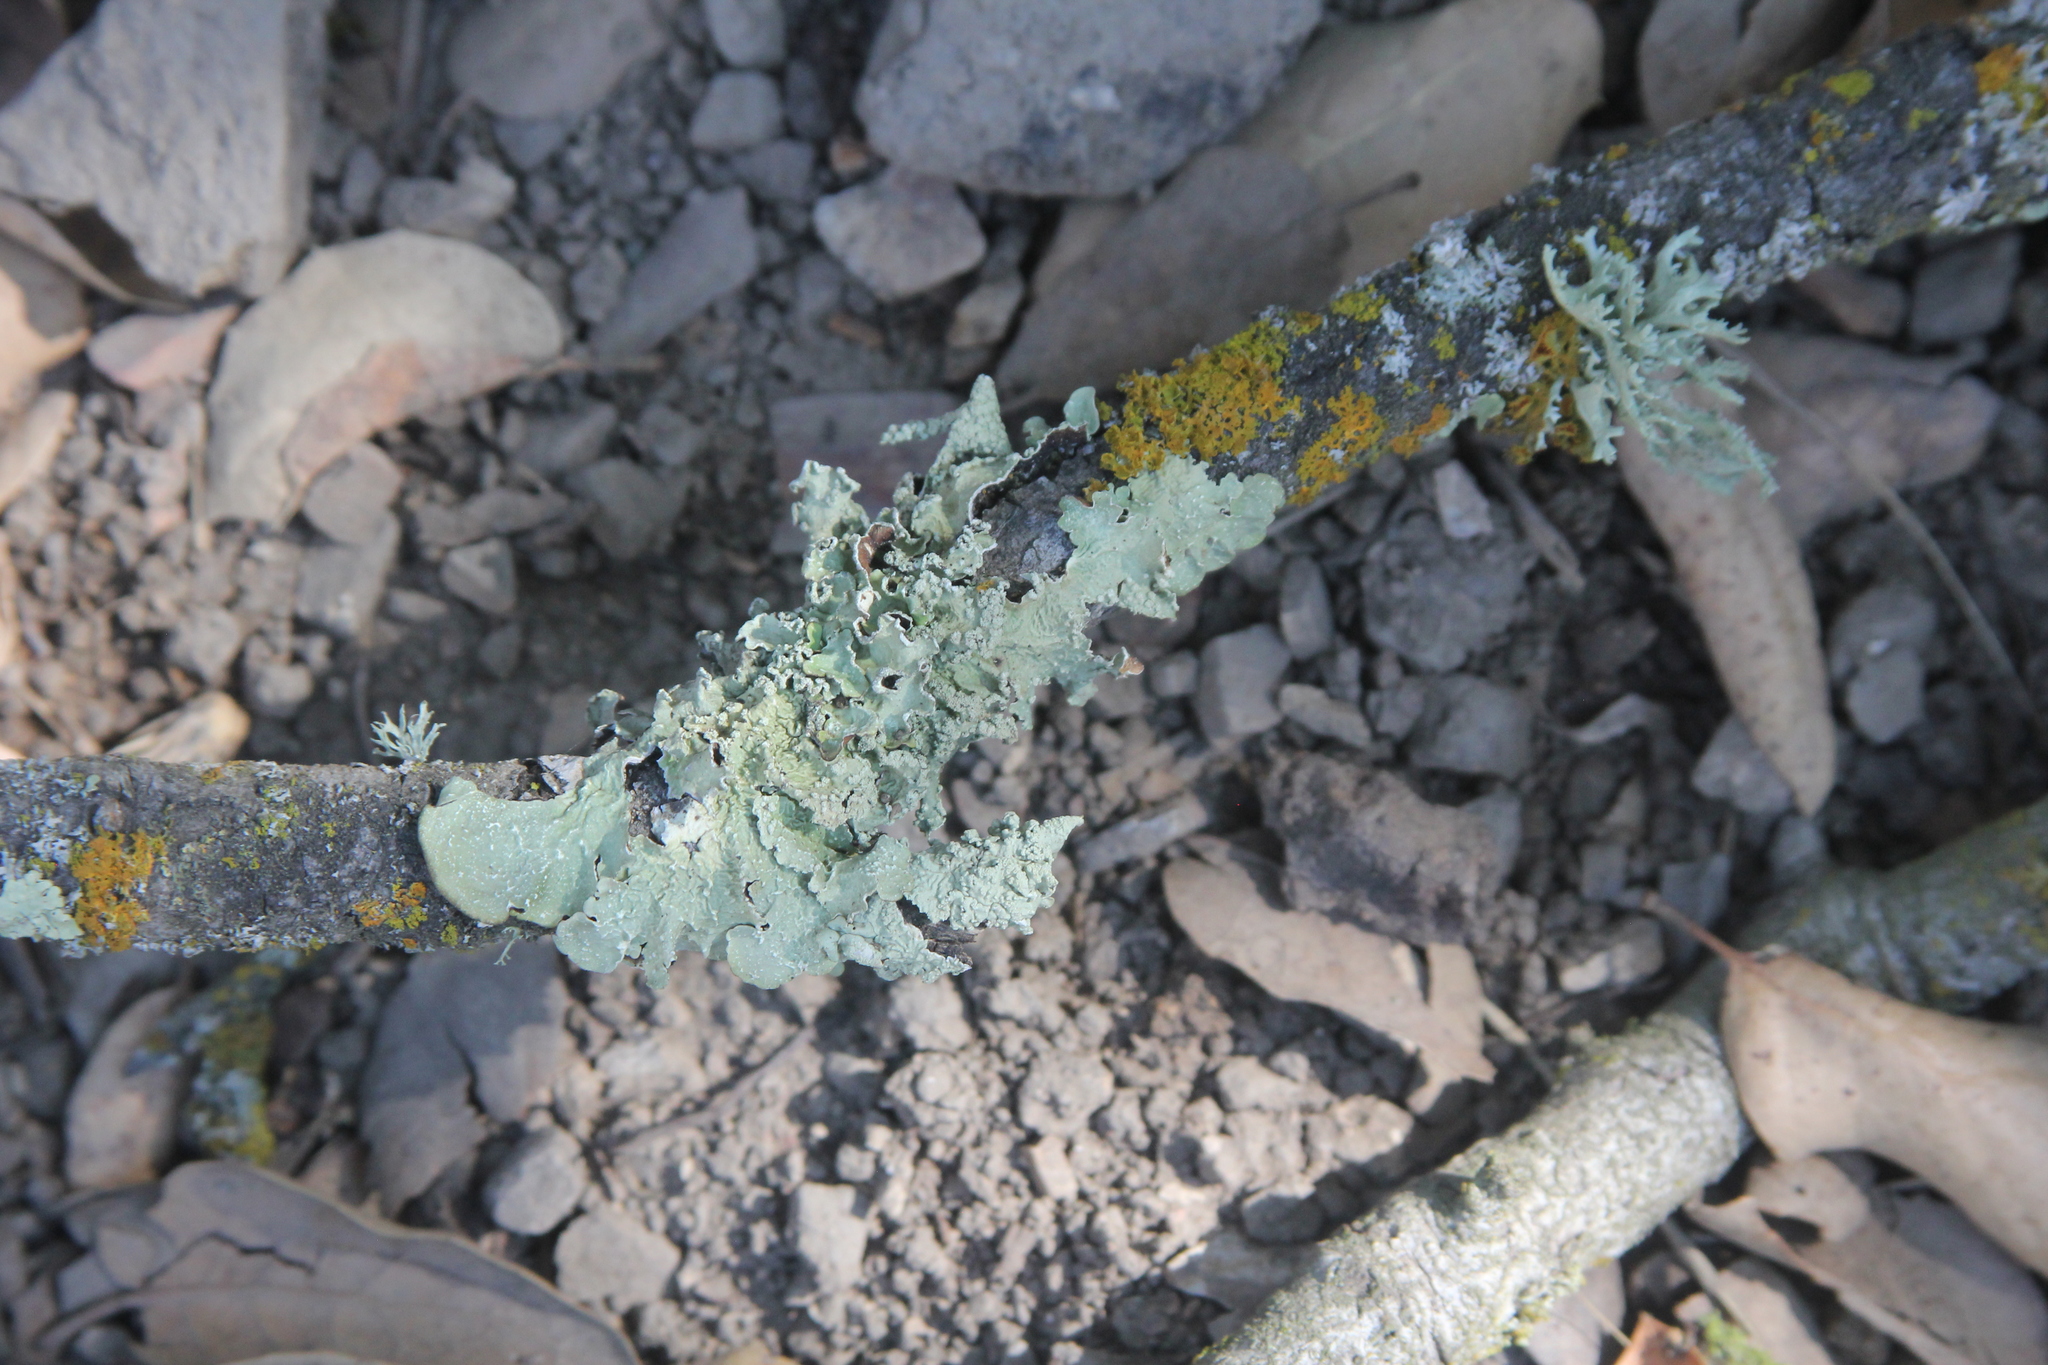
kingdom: Fungi
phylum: Ascomycota
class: Lecanoromycetes
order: Lecanorales
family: Parmeliaceae
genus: Flavopunctelia
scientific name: Flavopunctelia flaventior
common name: Speckled greenshield
